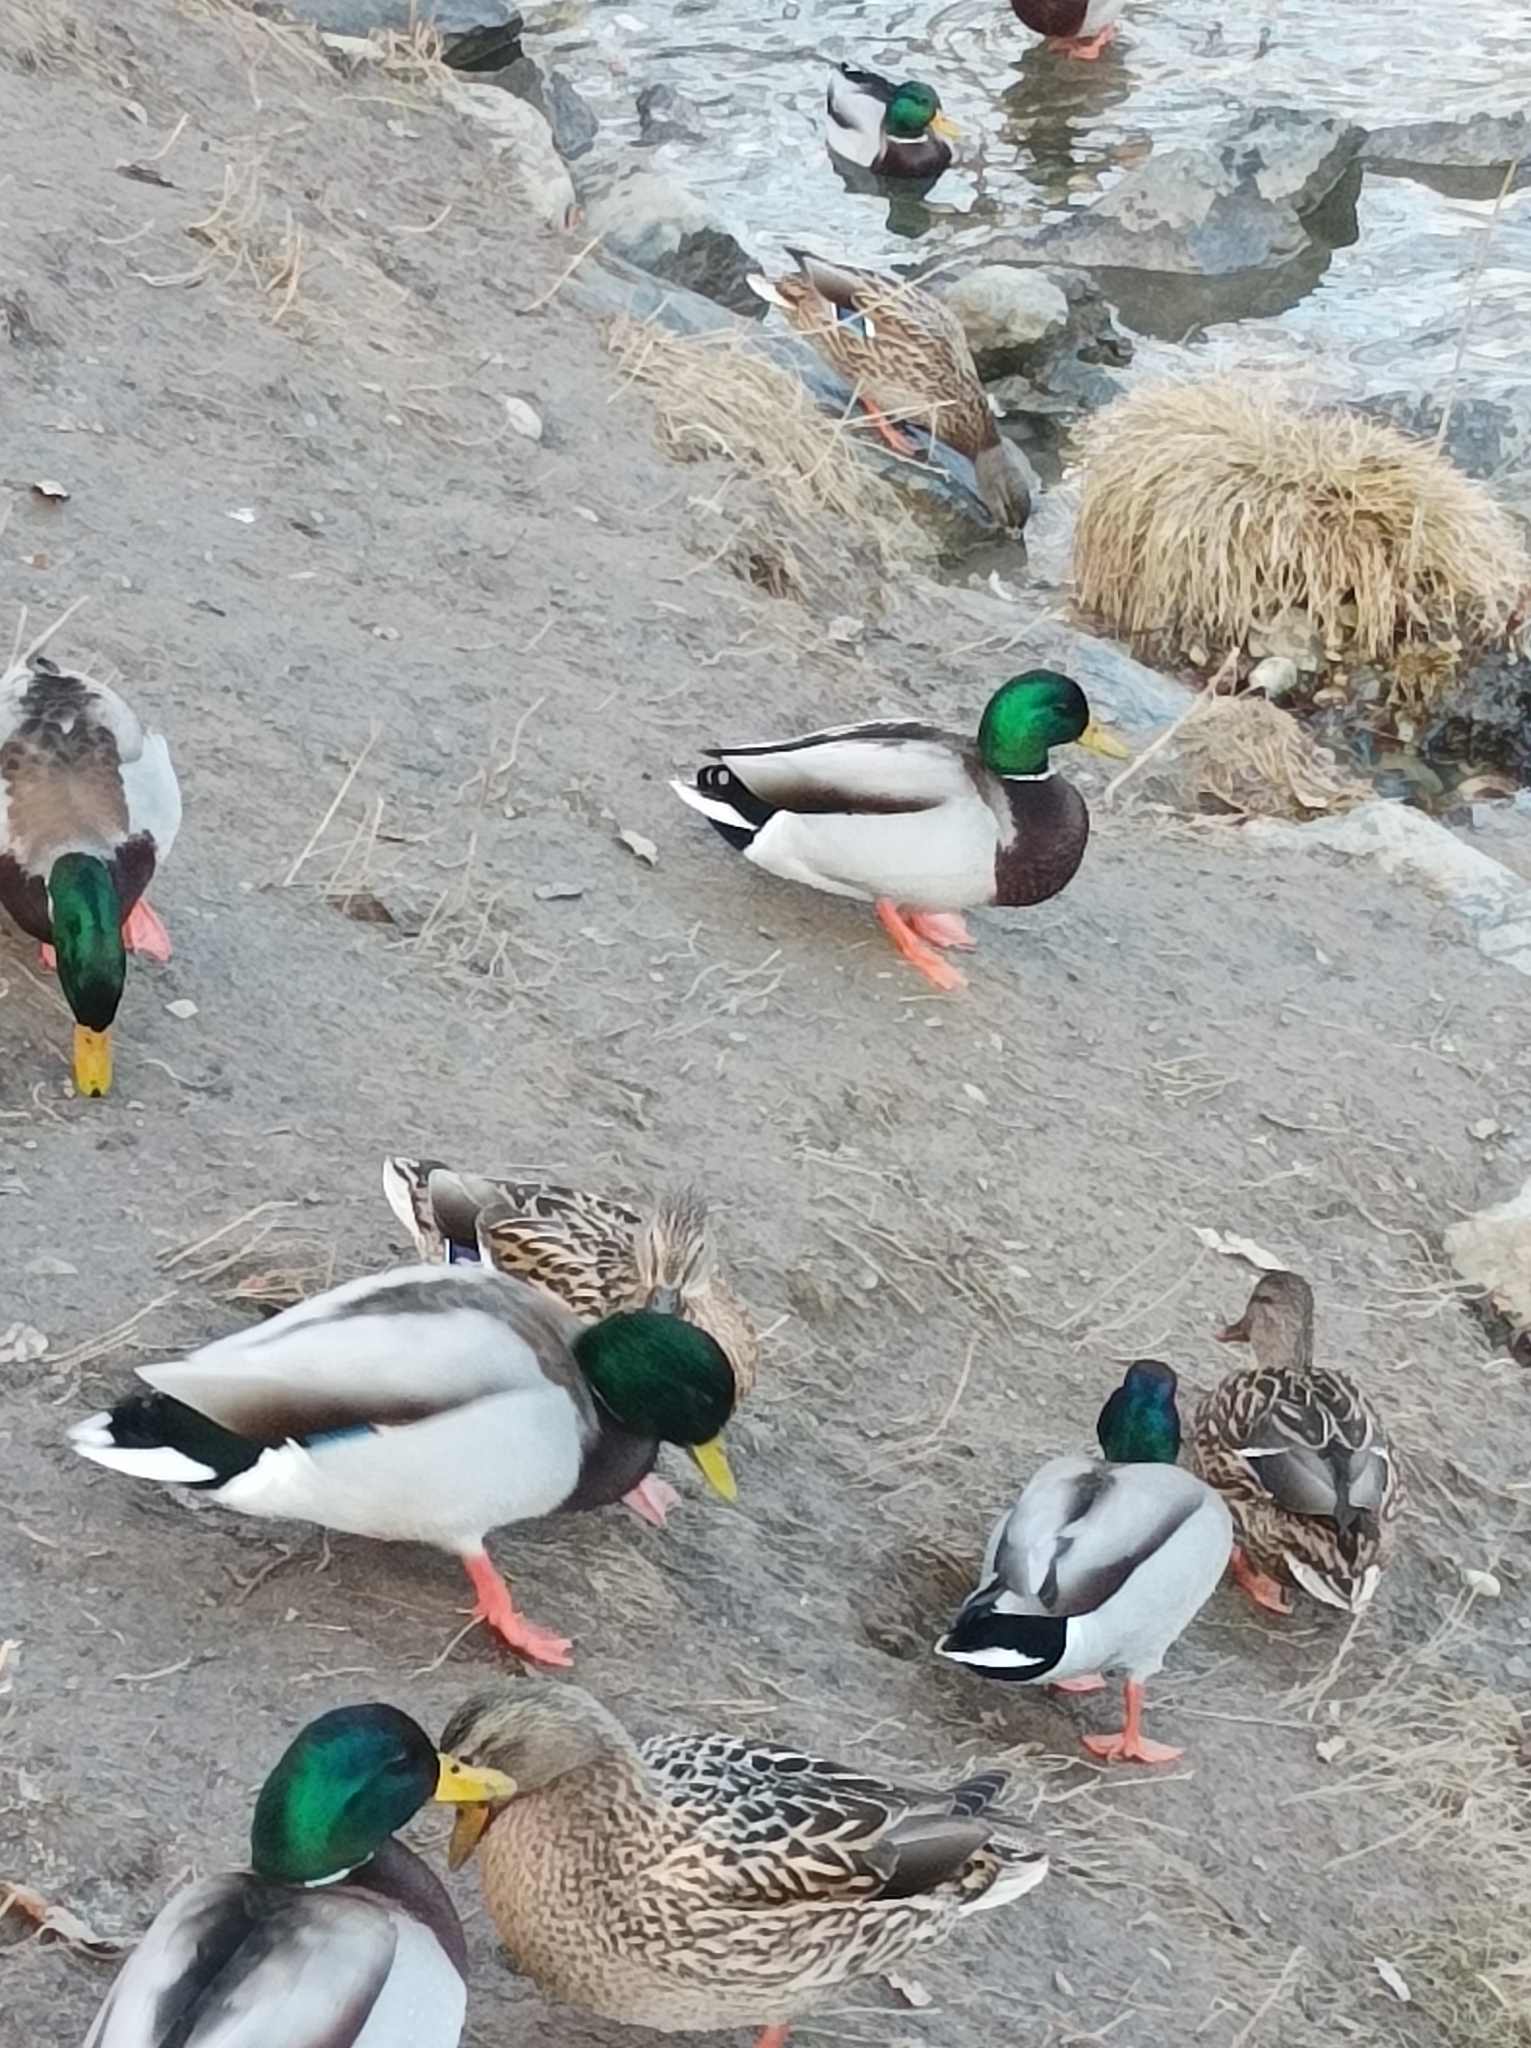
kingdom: Animalia
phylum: Chordata
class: Aves
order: Anseriformes
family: Anatidae
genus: Anas
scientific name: Anas platyrhynchos
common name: Mallard
